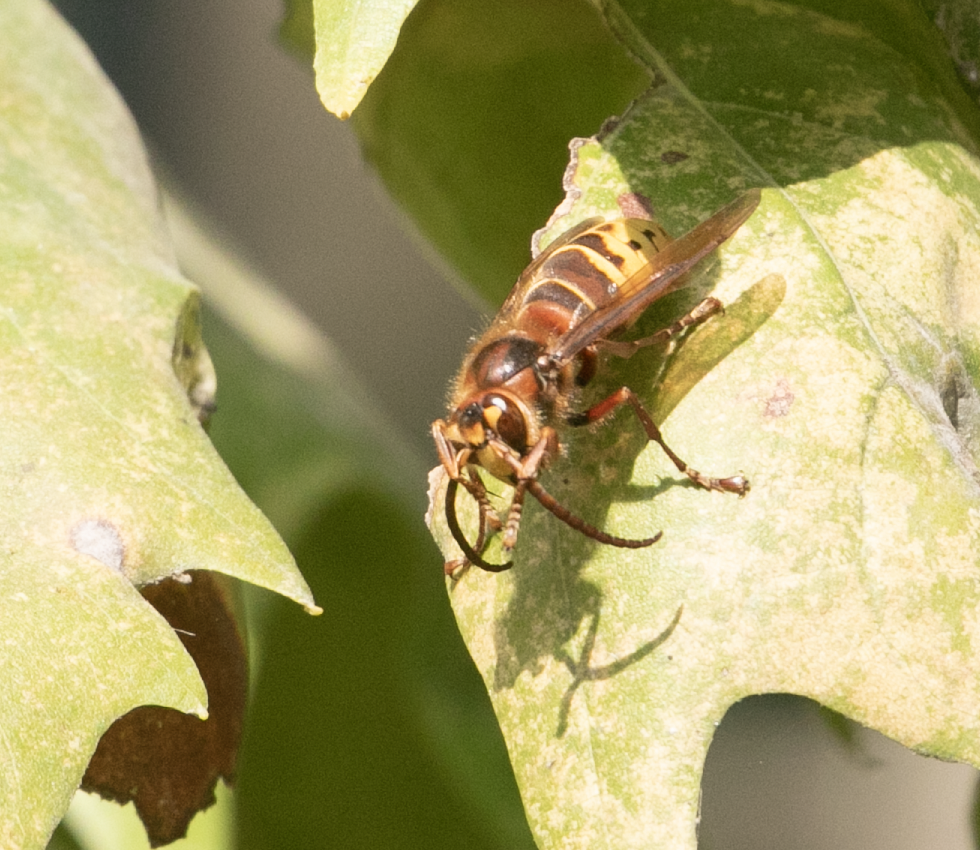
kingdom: Animalia
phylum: Arthropoda
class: Insecta
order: Hymenoptera
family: Vespidae
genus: Vespa
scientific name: Vespa crabro
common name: Hornet
